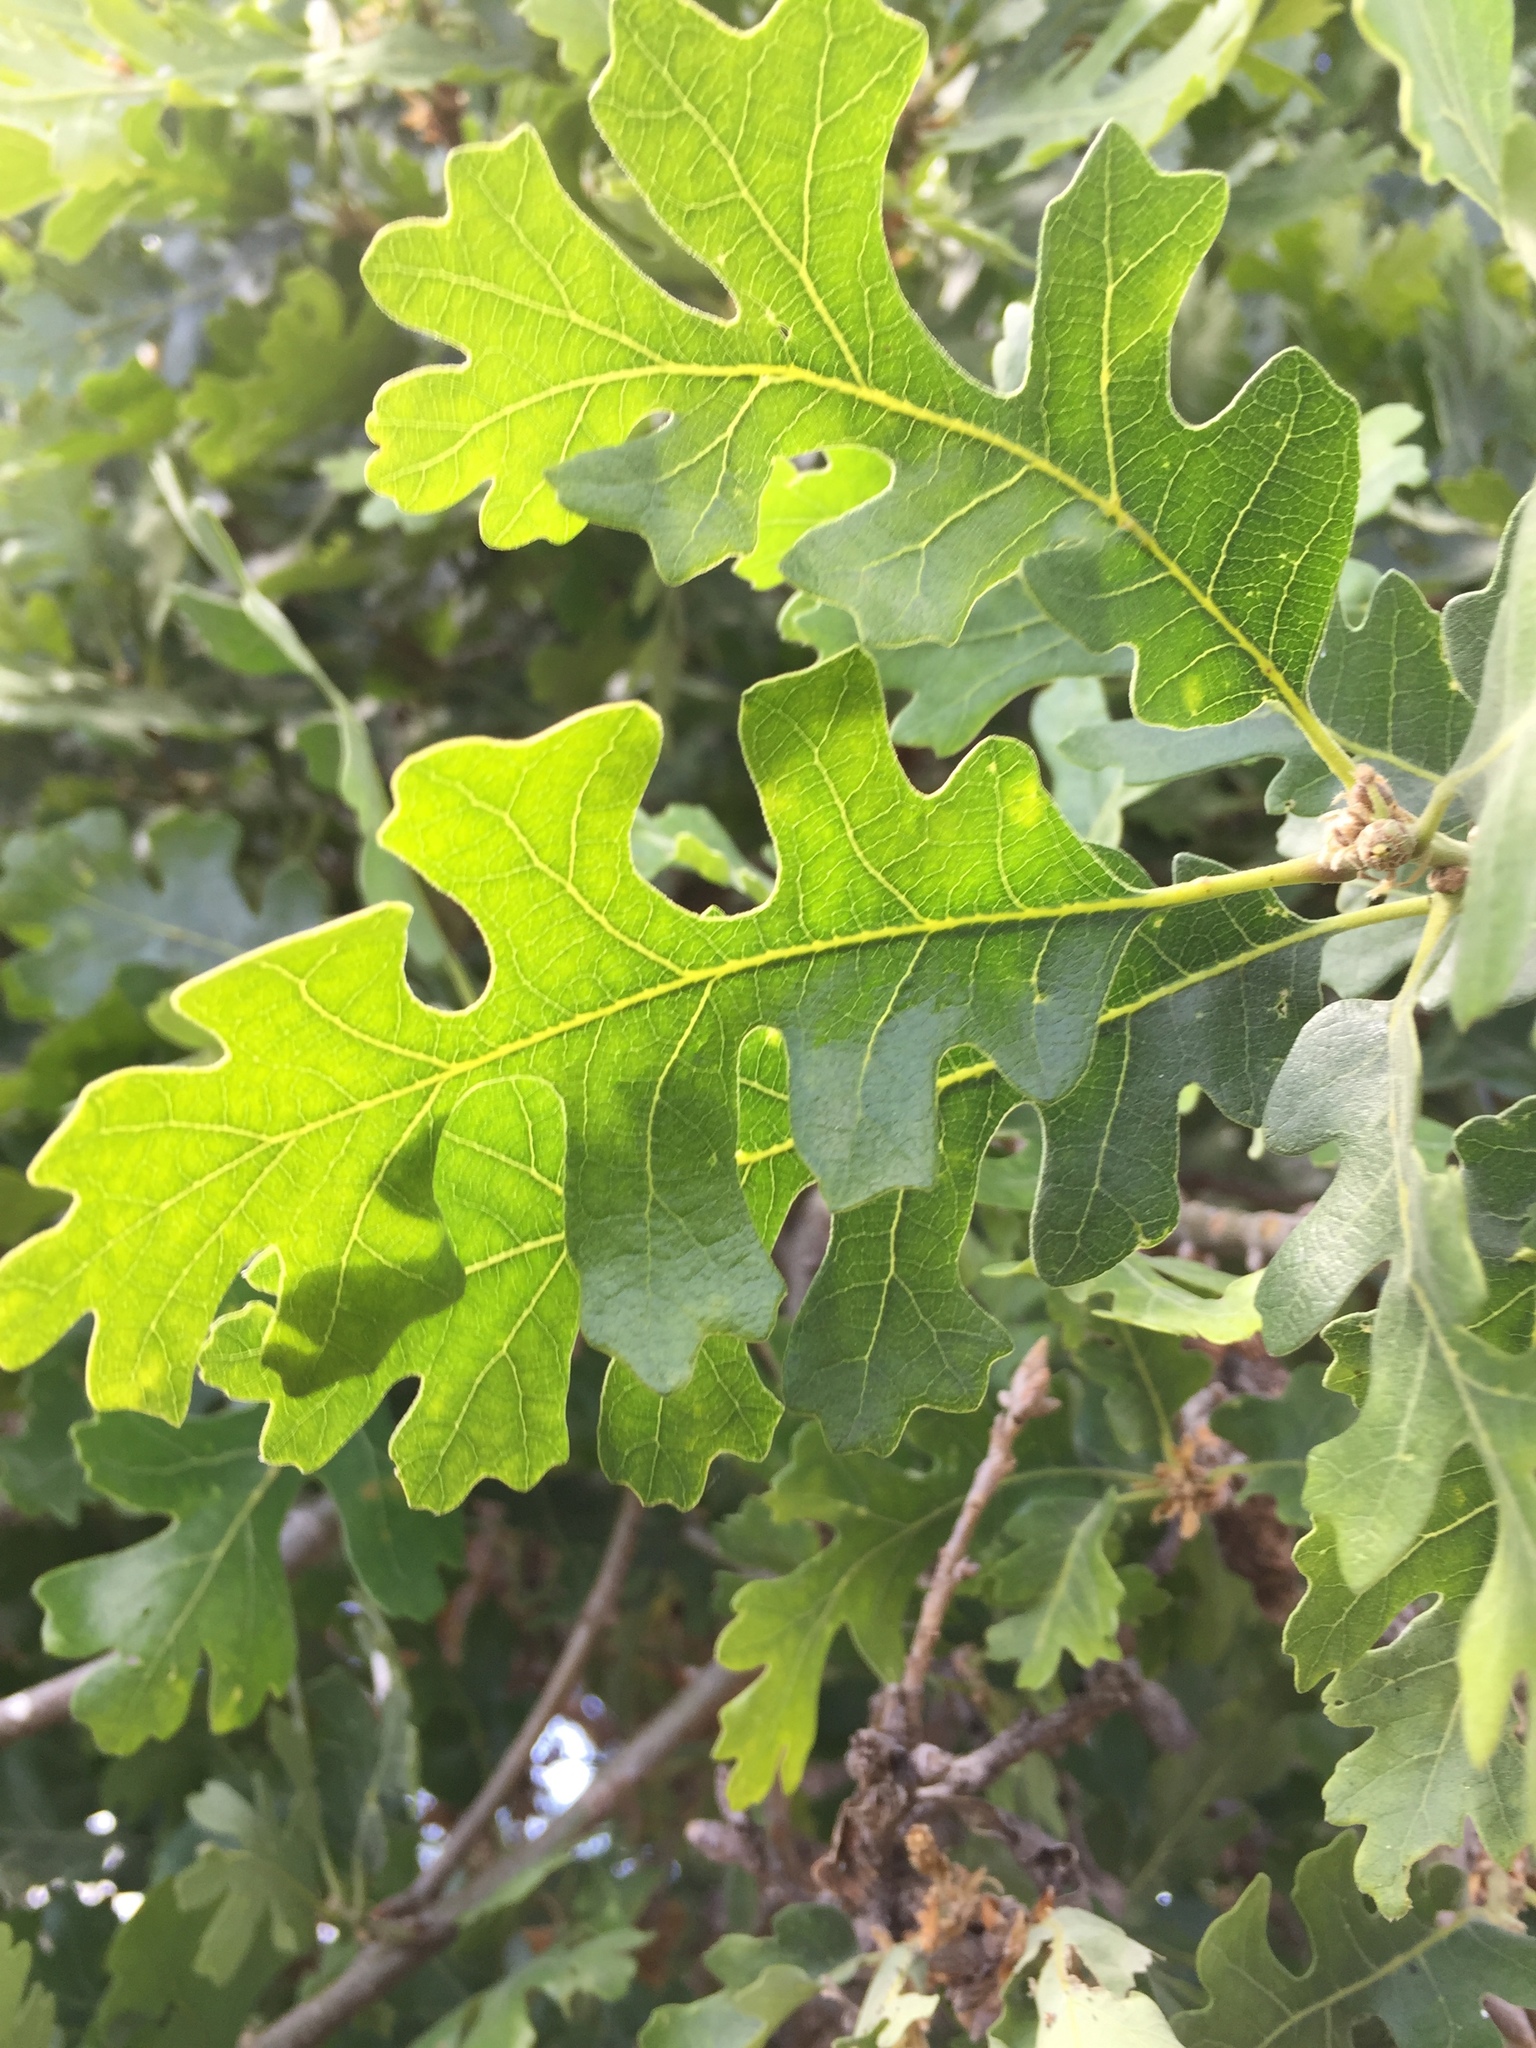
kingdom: Plantae
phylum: Tracheophyta
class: Magnoliopsida
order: Fagales
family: Fagaceae
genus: Quercus
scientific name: Quercus lobata
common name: Valley oak
